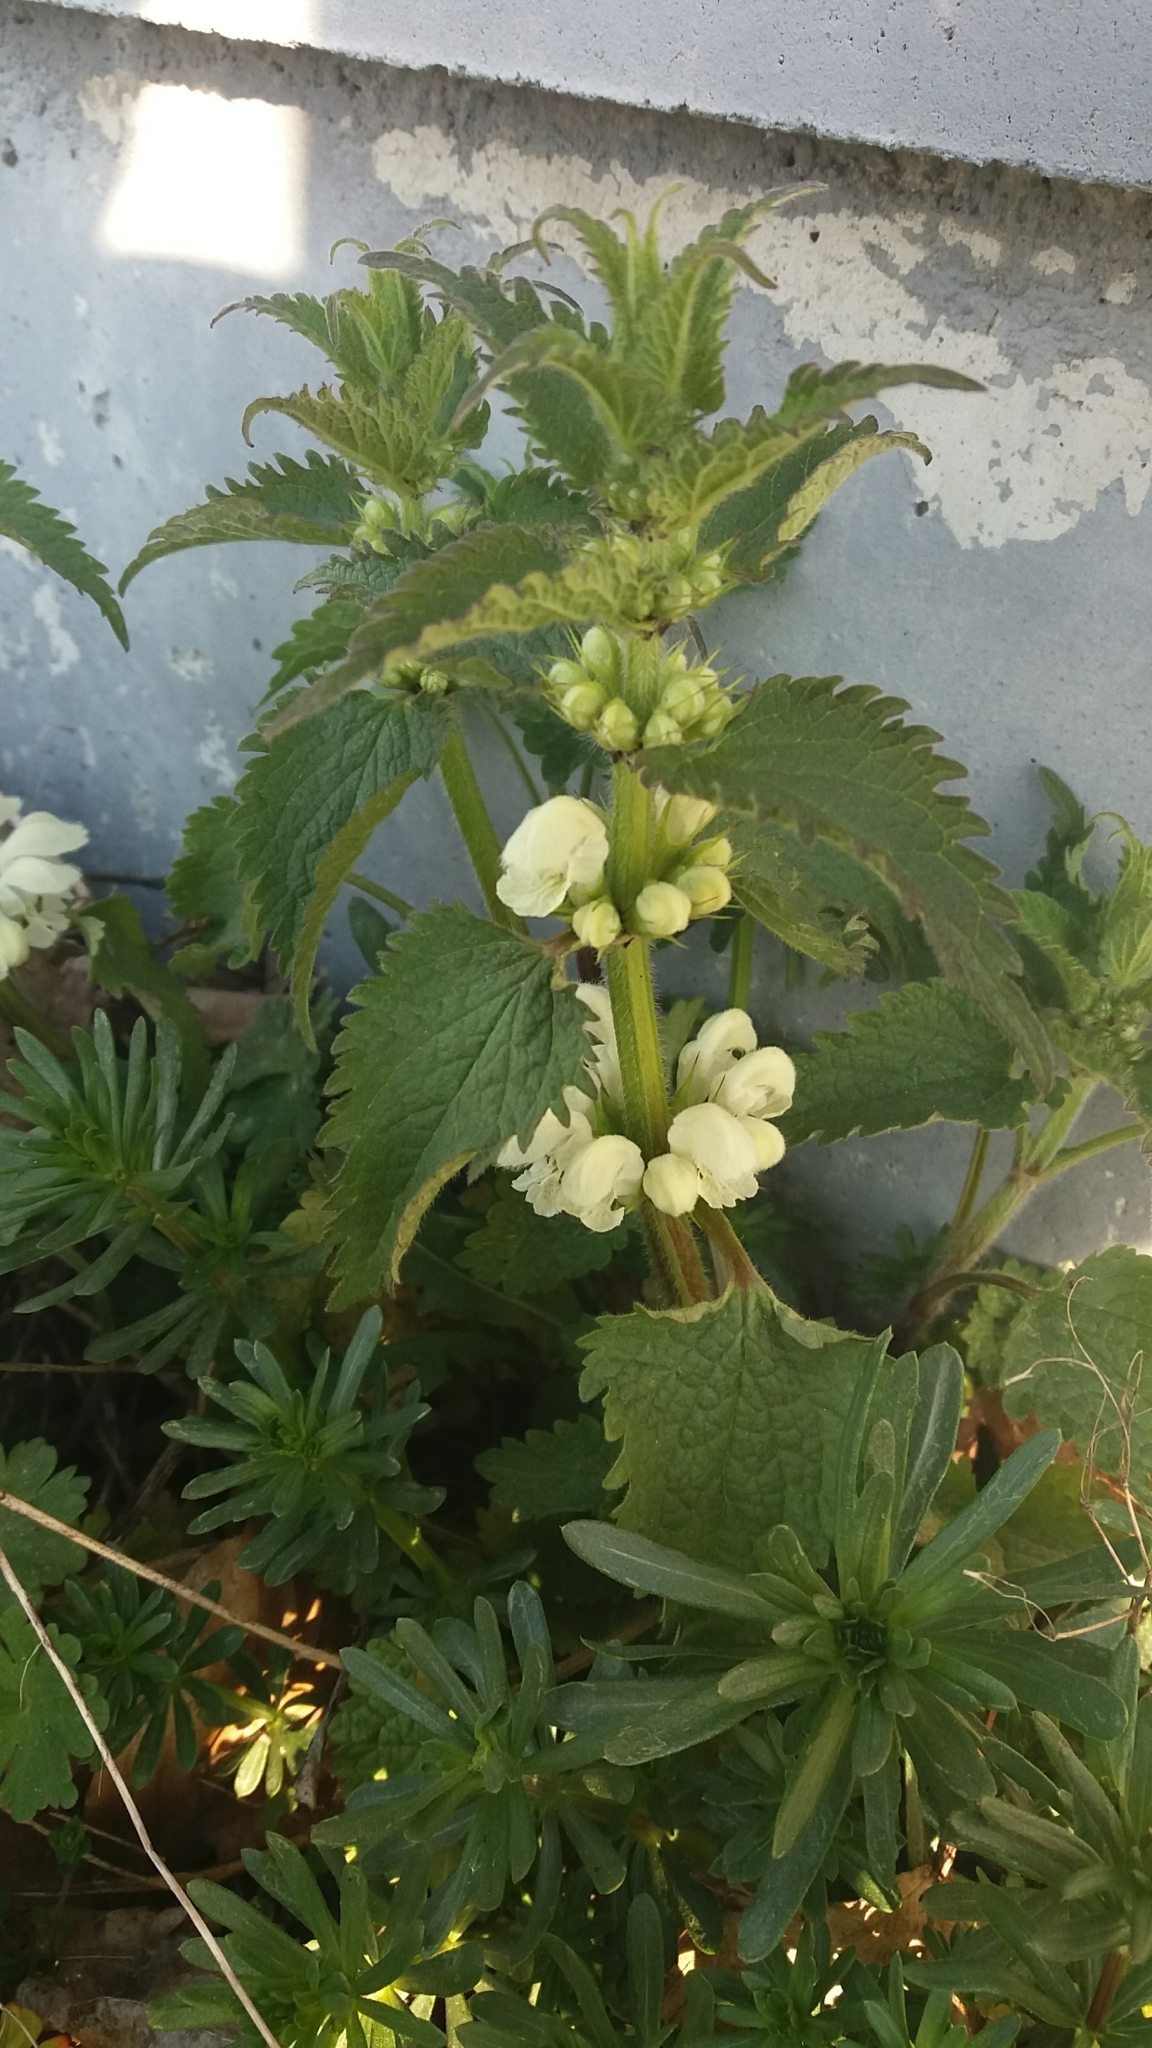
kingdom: Plantae
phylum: Tracheophyta
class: Magnoliopsida
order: Lamiales
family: Lamiaceae
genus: Lamium
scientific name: Lamium album
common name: White dead-nettle
